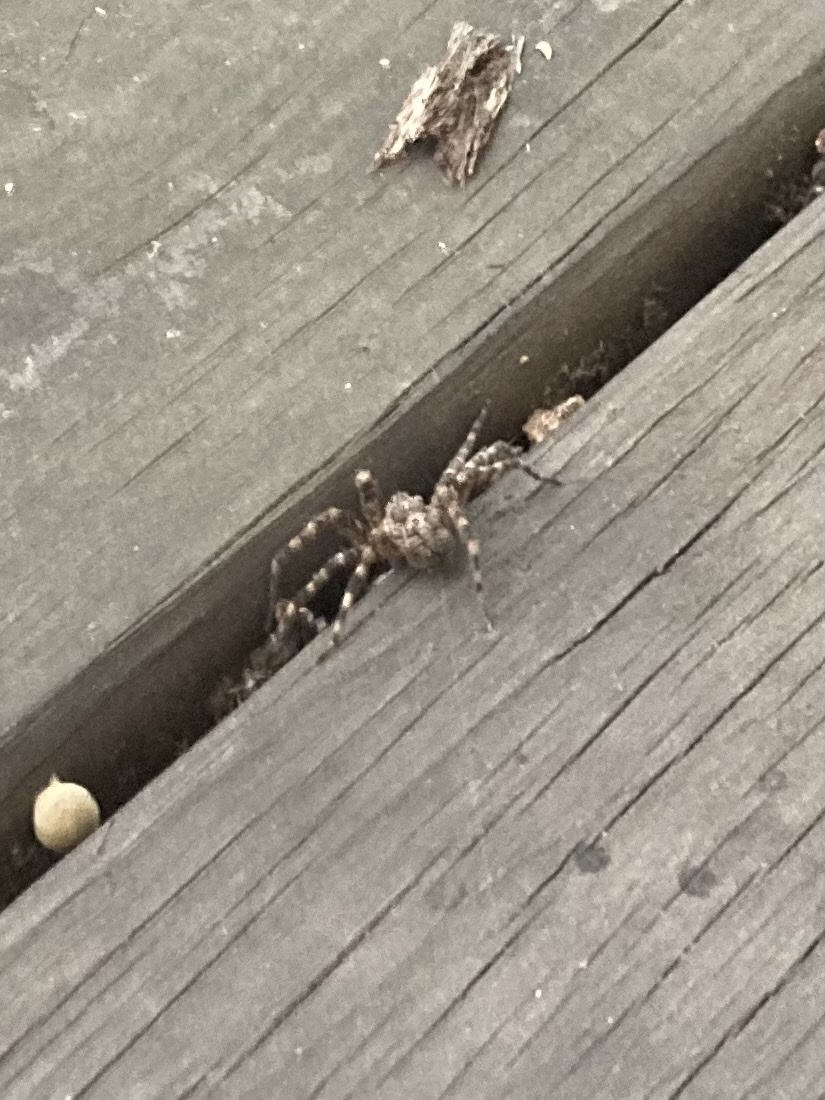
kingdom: Animalia
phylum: Arthropoda
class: Arachnida
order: Araneae
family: Pisauridae
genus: Dolomedes
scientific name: Dolomedes tenebrosus
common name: Dark fishing spider
